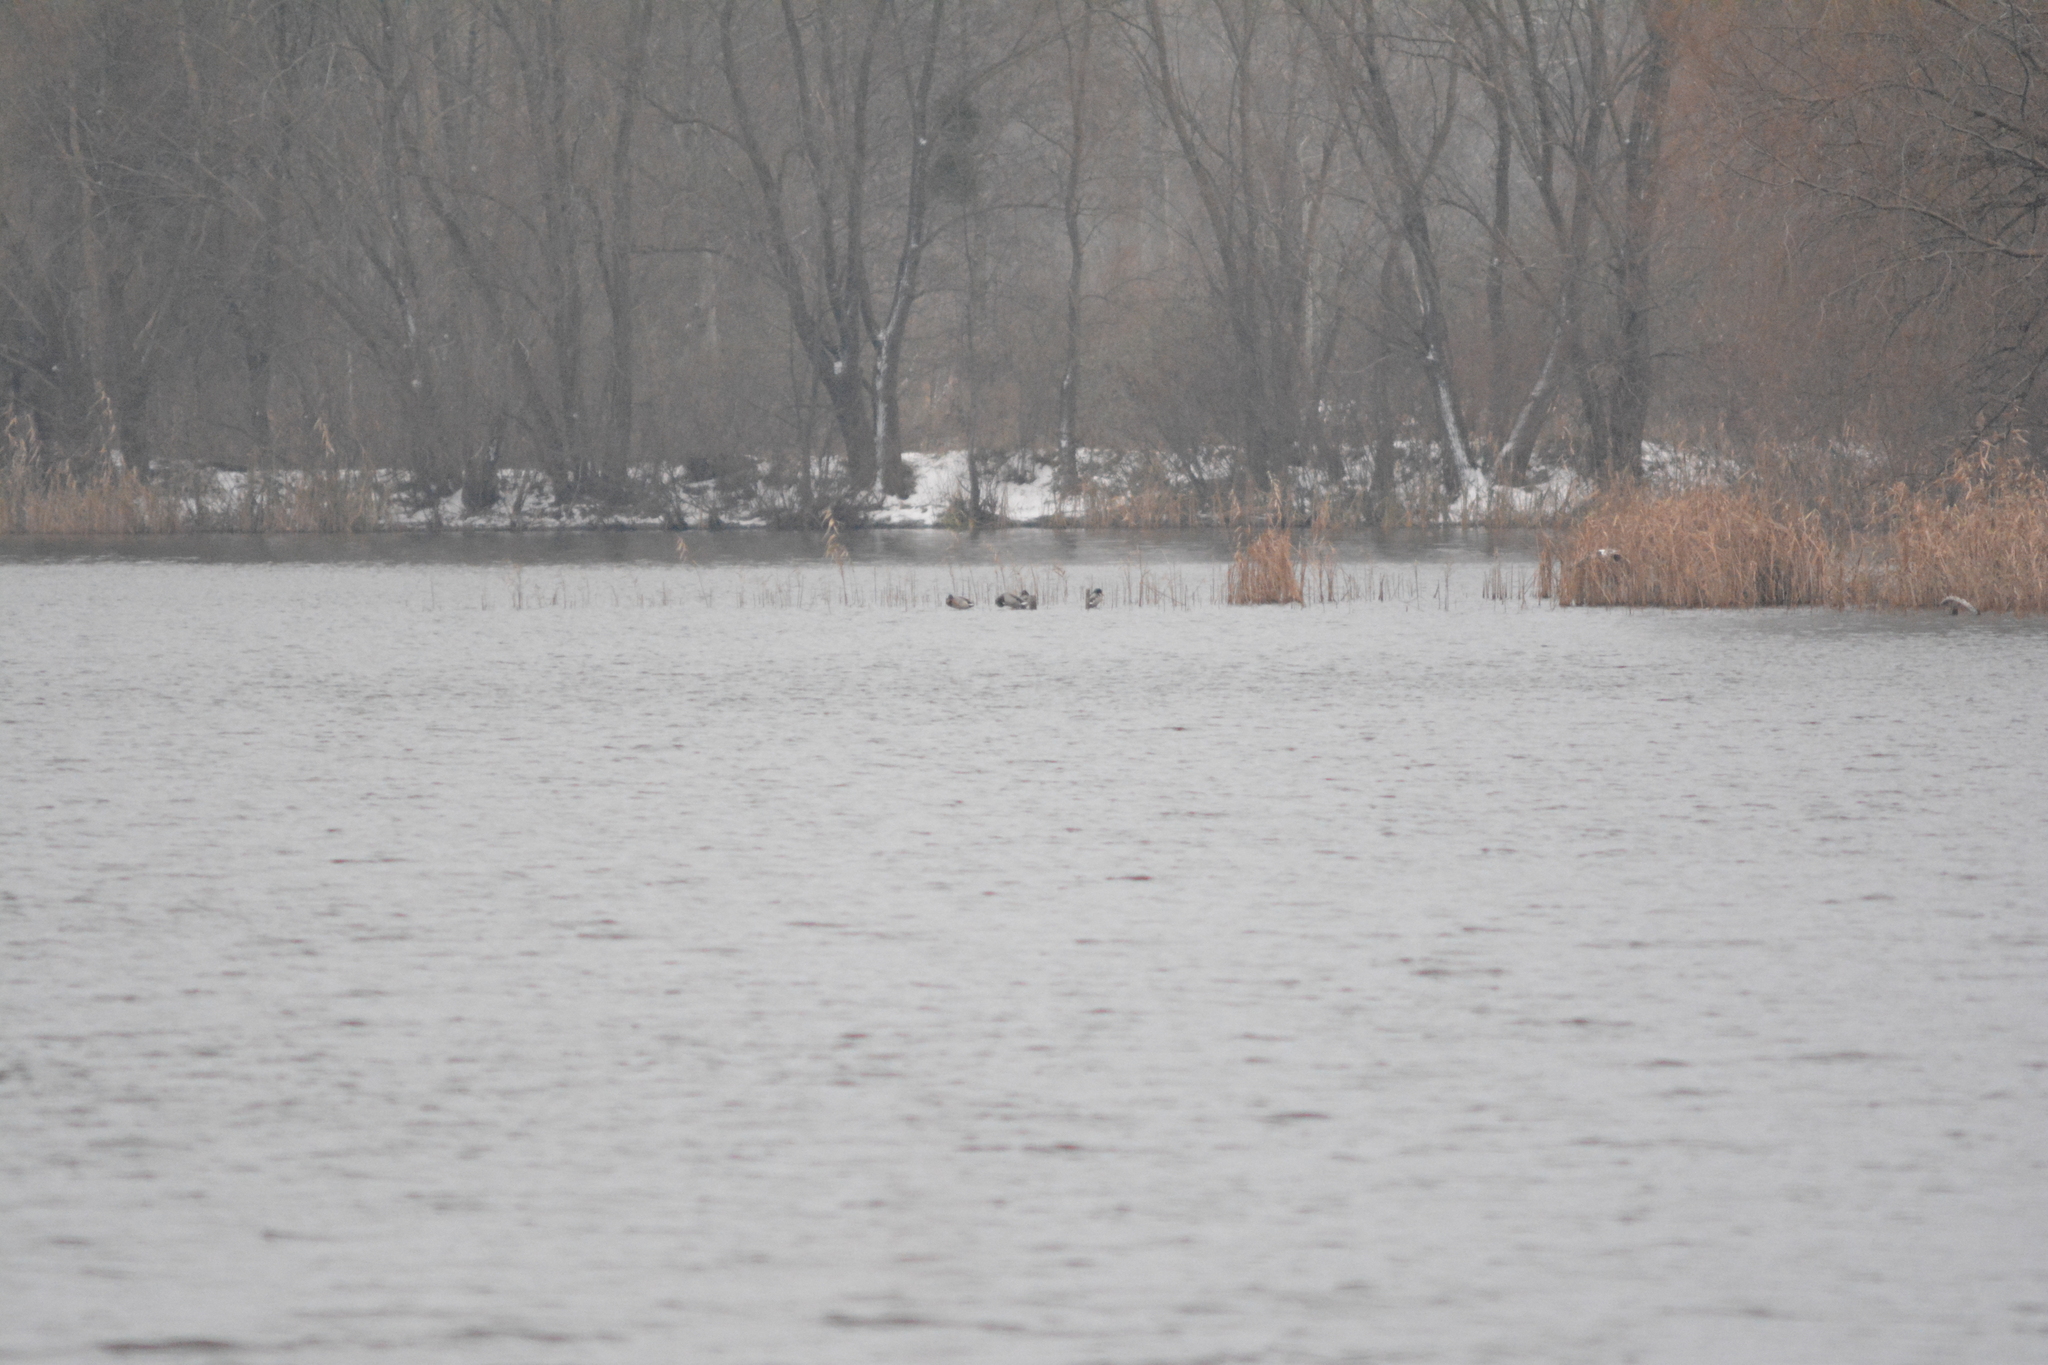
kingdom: Animalia
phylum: Chordata
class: Aves
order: Anseriformes
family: Anatidae
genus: Anas
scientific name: Anas platyrhynchos
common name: Mallard
